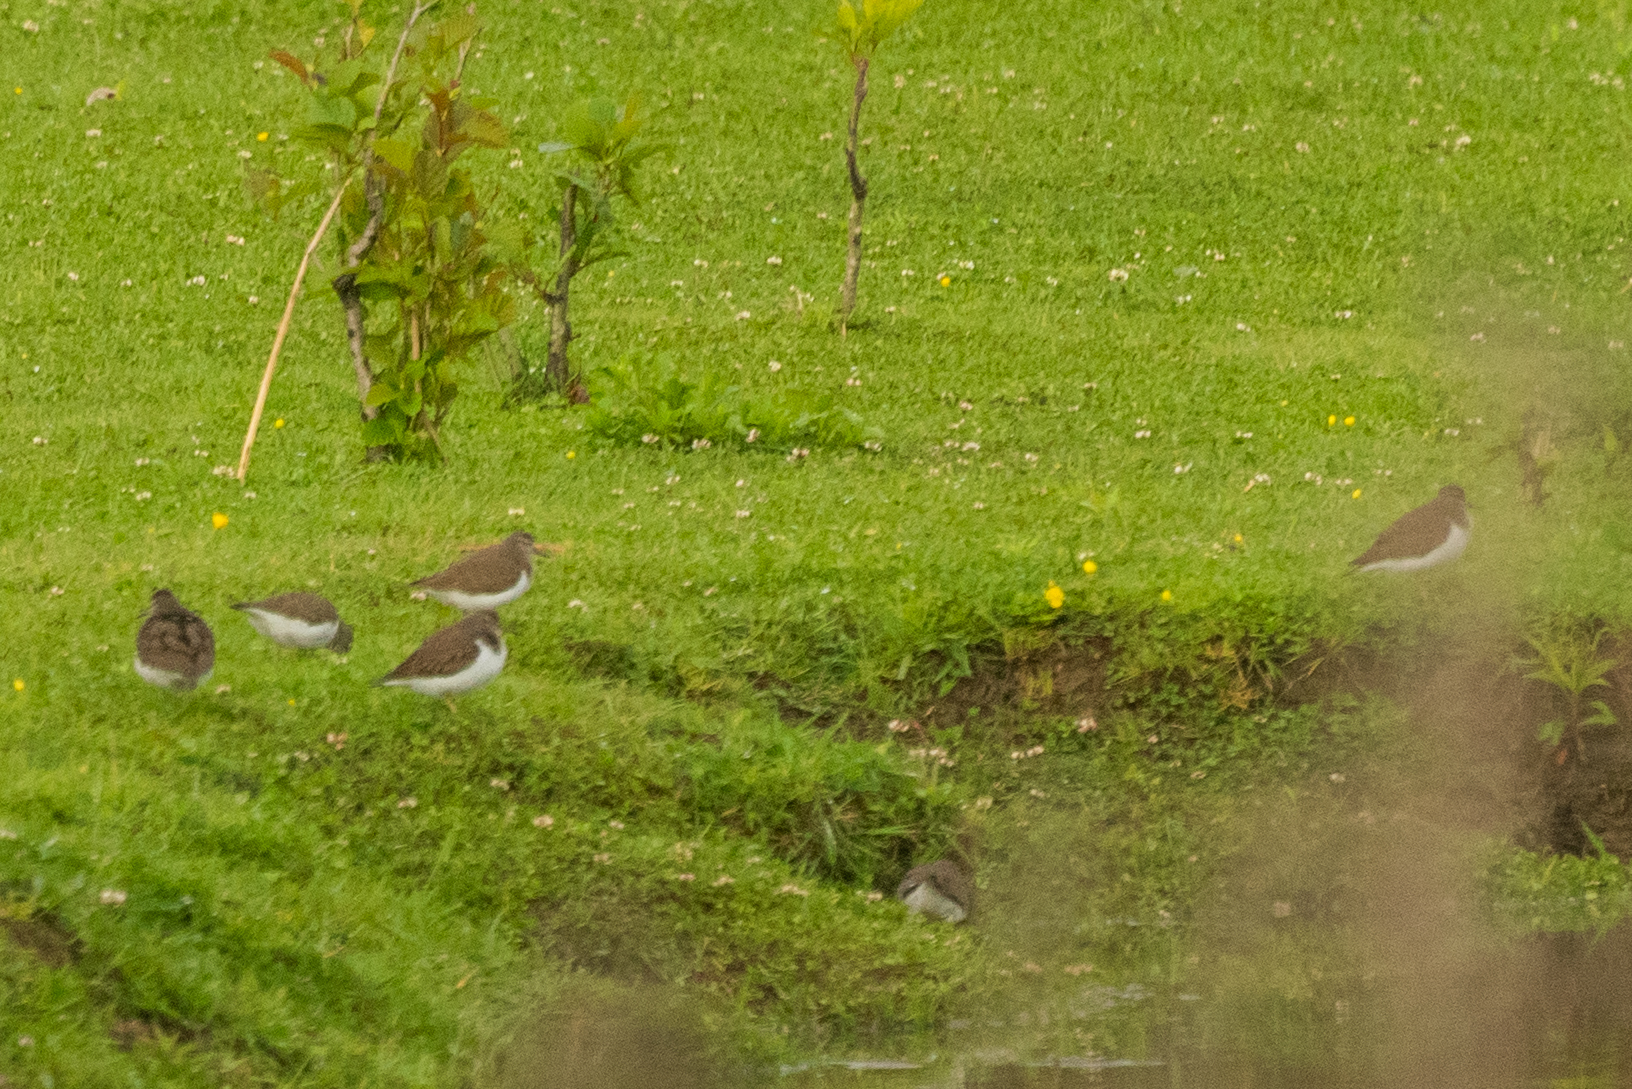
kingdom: Animalia
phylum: Chordata
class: Aves
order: Charadriiformes
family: Scolopacidae
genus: Actitis
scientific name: Actitis hypoleucos
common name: Common sandpiper
